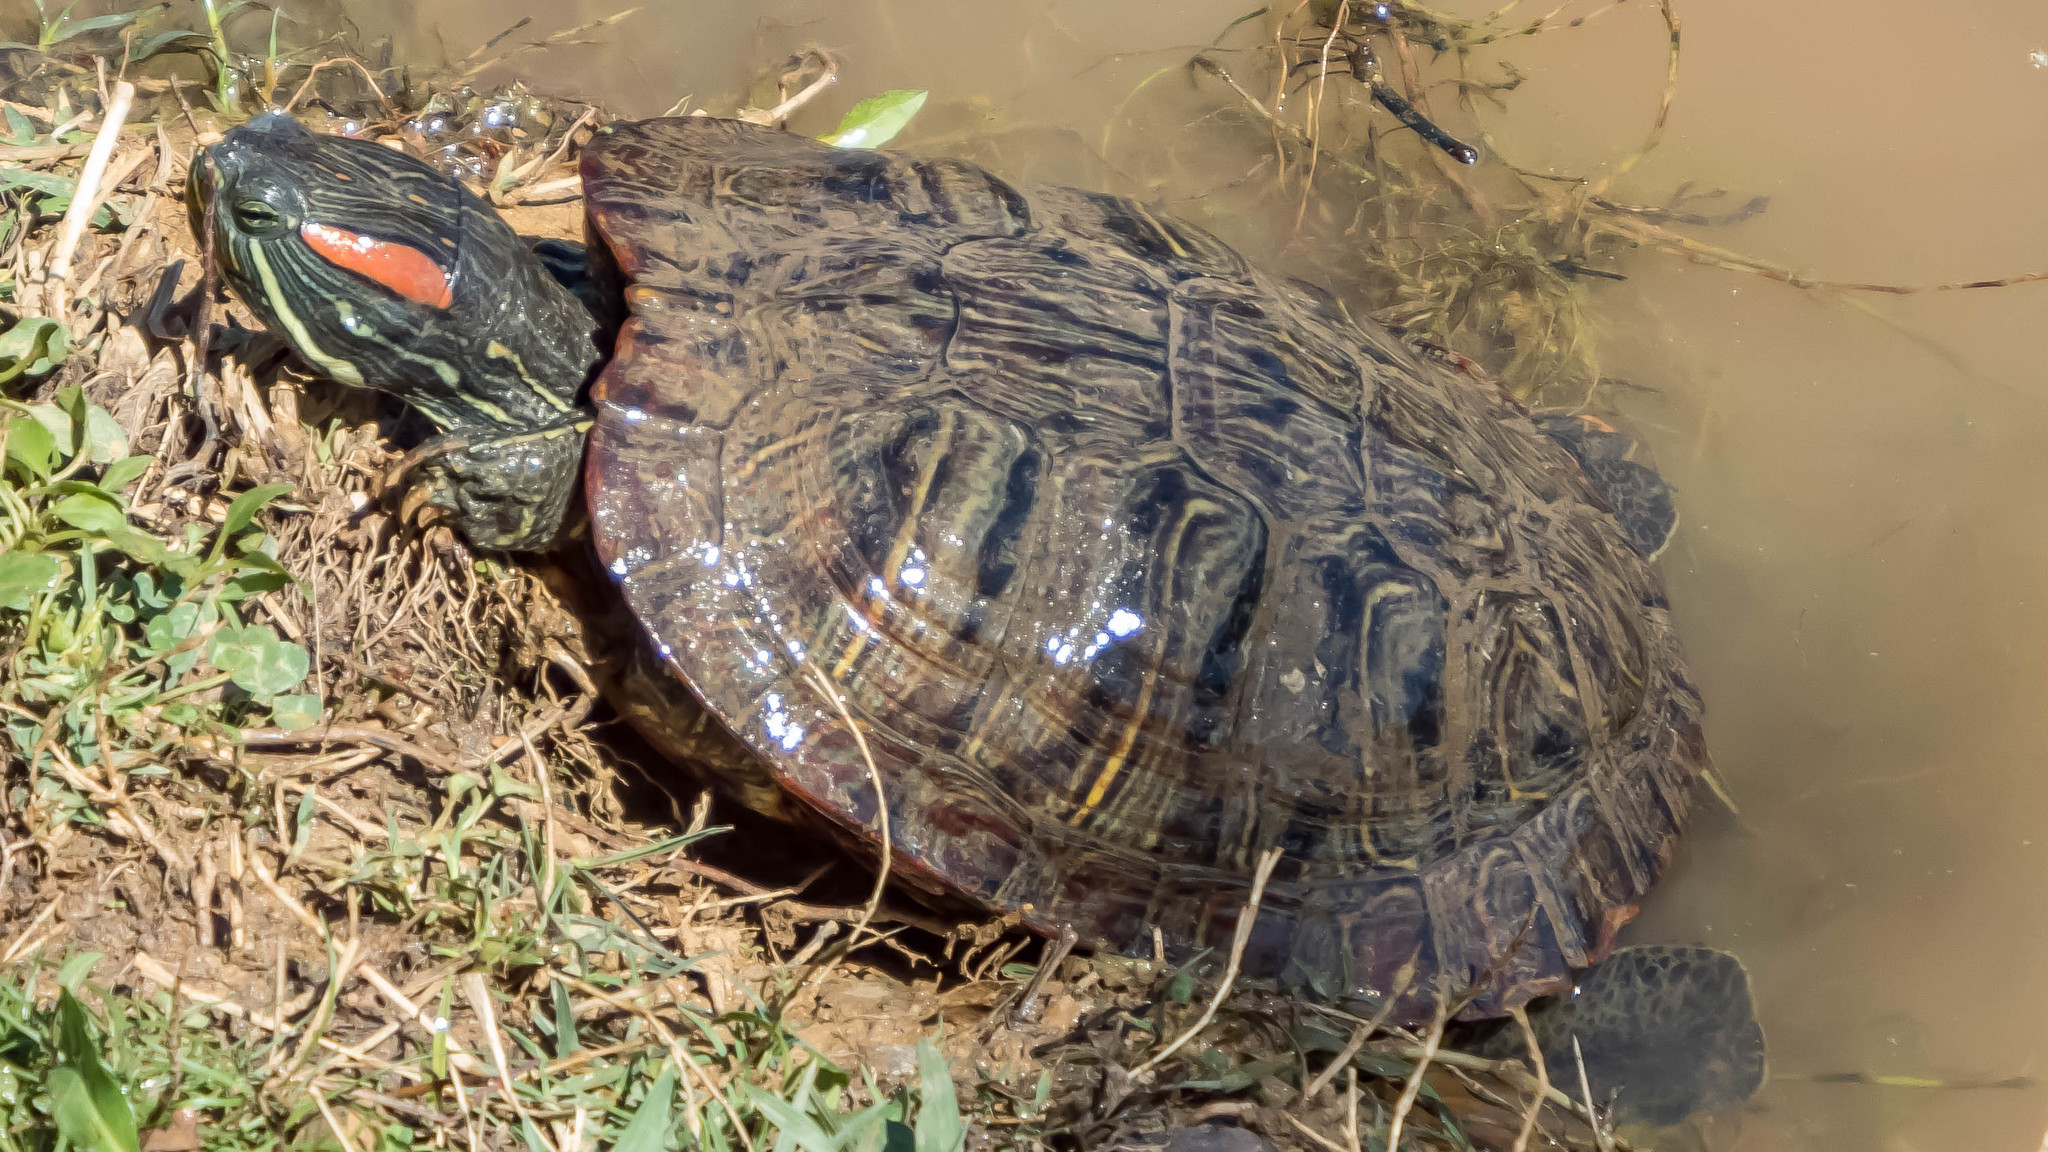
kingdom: Animalia
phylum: Chordata
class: Testudines
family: Emydidae
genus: Trachemys
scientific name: Trachemys scripta
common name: Slider
